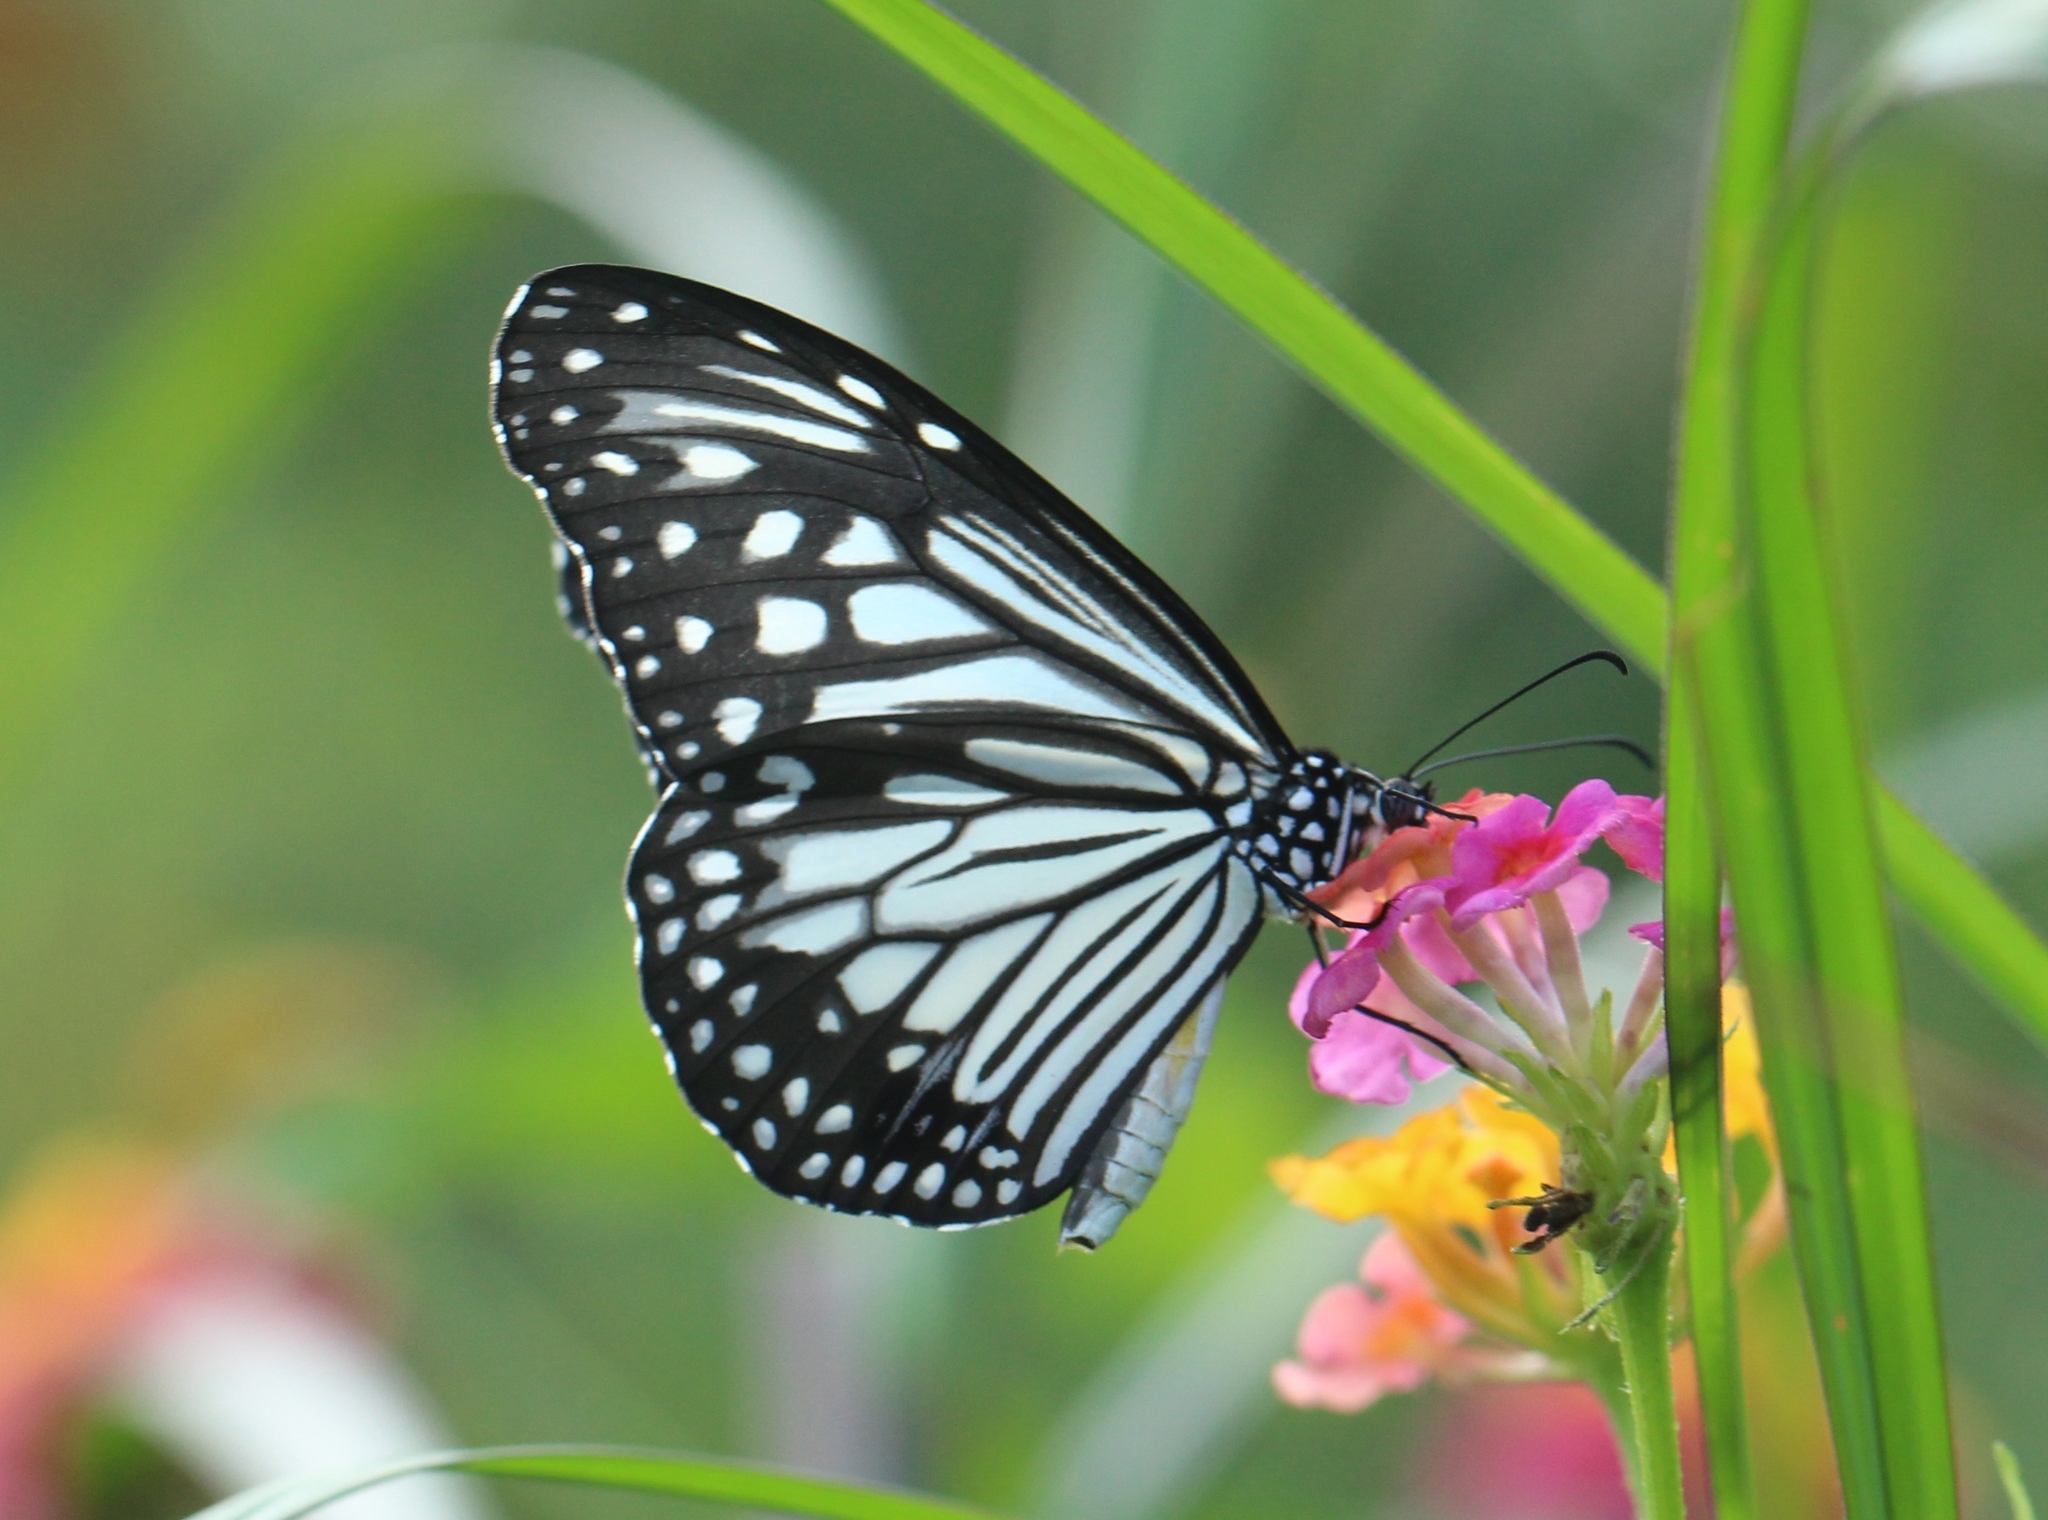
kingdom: Animalia
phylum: Arthropoda
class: Insecta
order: Lepidoptera
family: Nymphalidae
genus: Parantica
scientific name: Parantica aglea
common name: Glassy tiger
